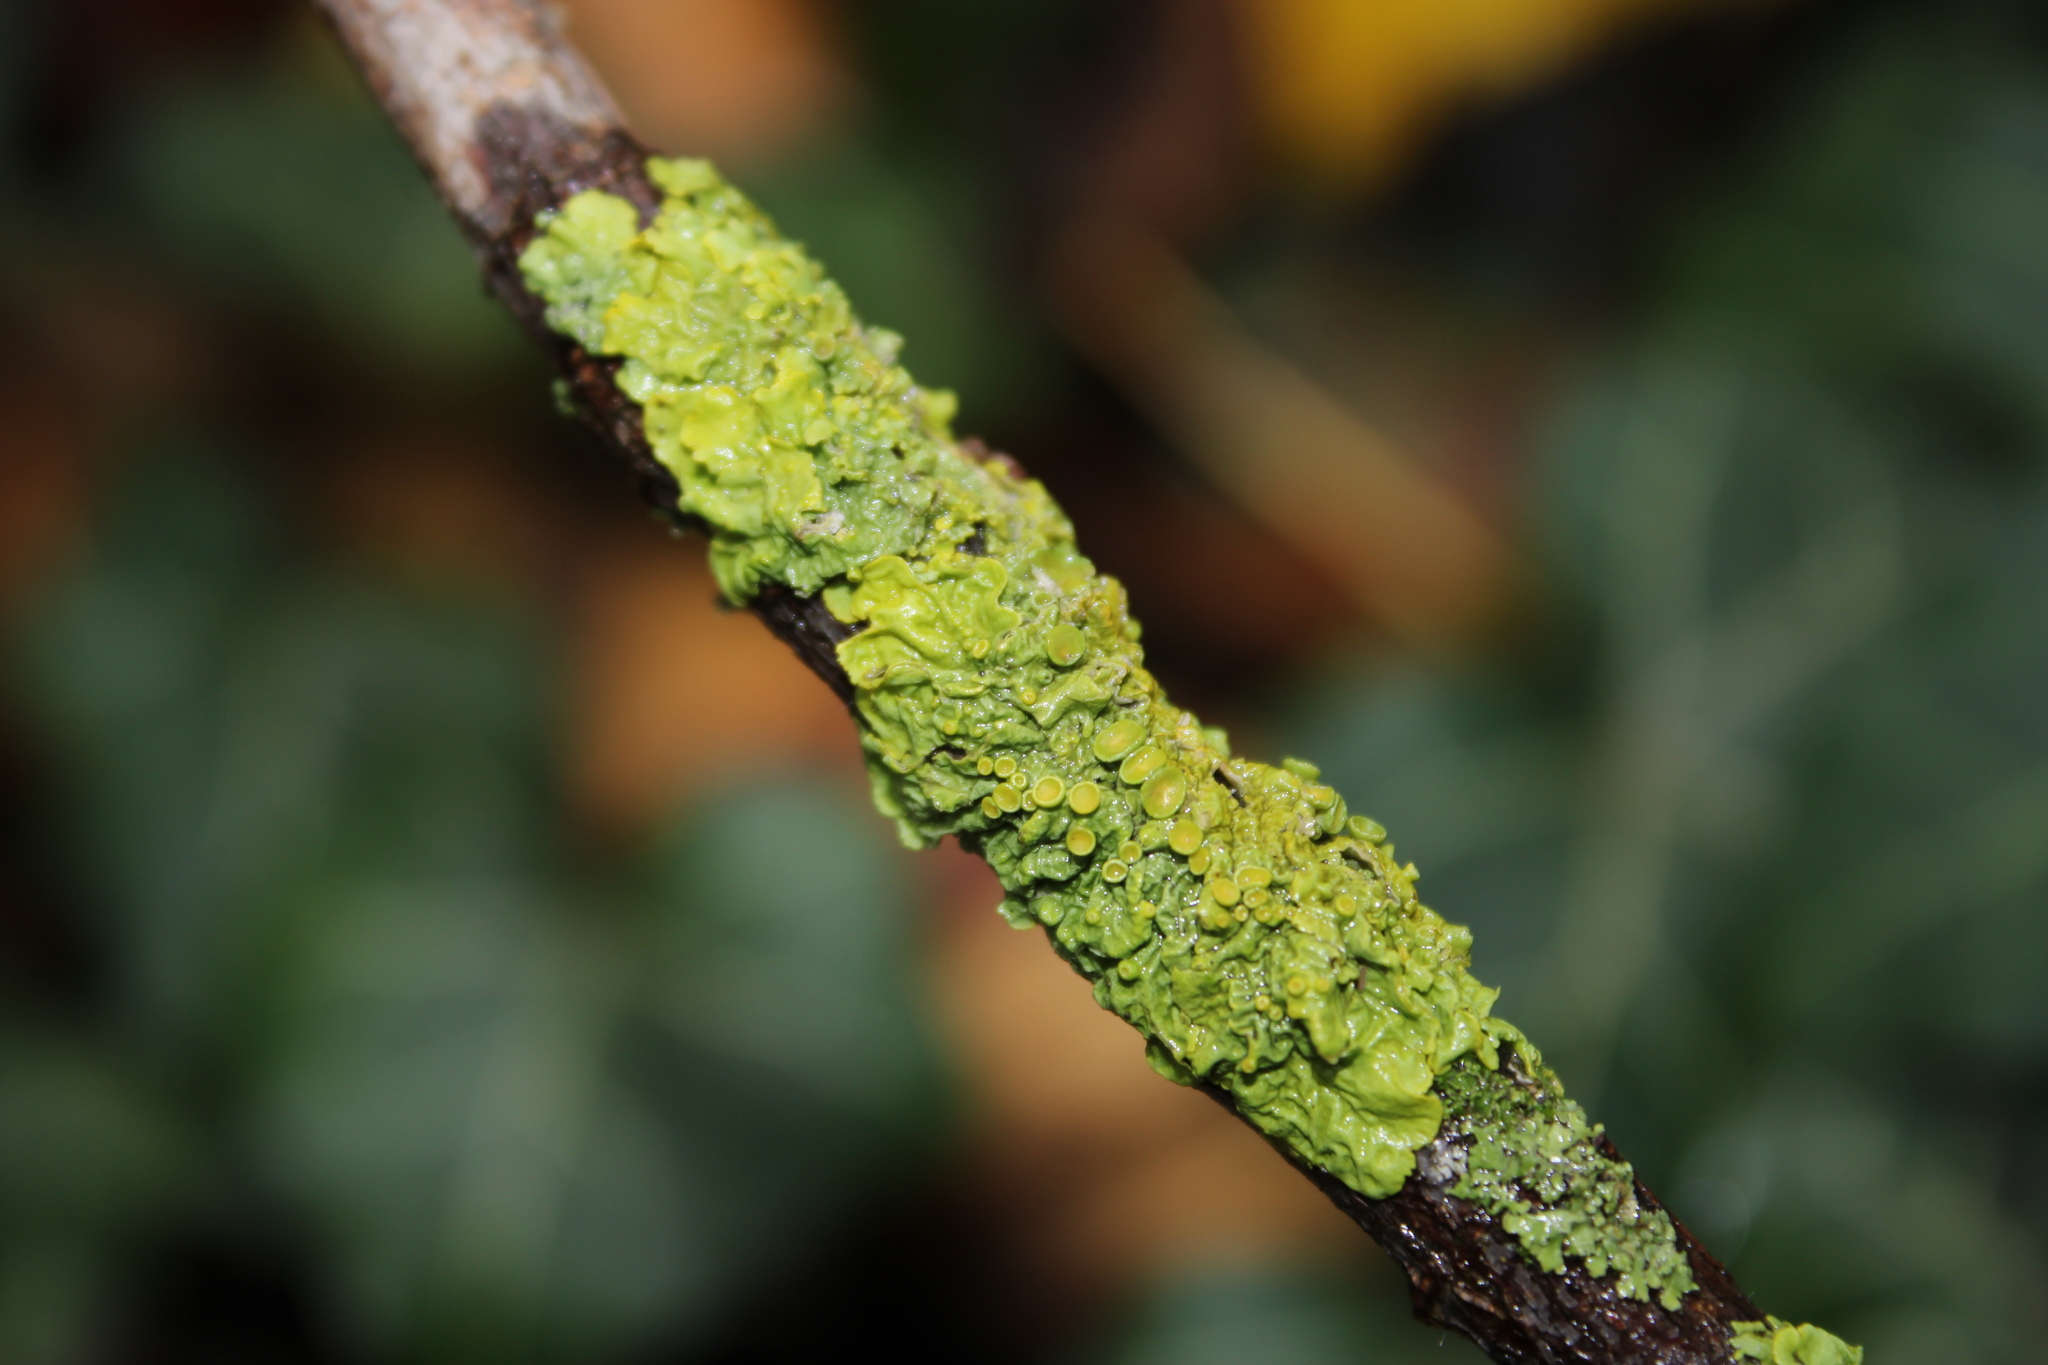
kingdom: Fungi
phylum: Ascomycota
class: Lecanoromycetes
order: Teloschistales
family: Teloschistaceae
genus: Xanthoria
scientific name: Xanthoria parietina
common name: Common orange lichen
